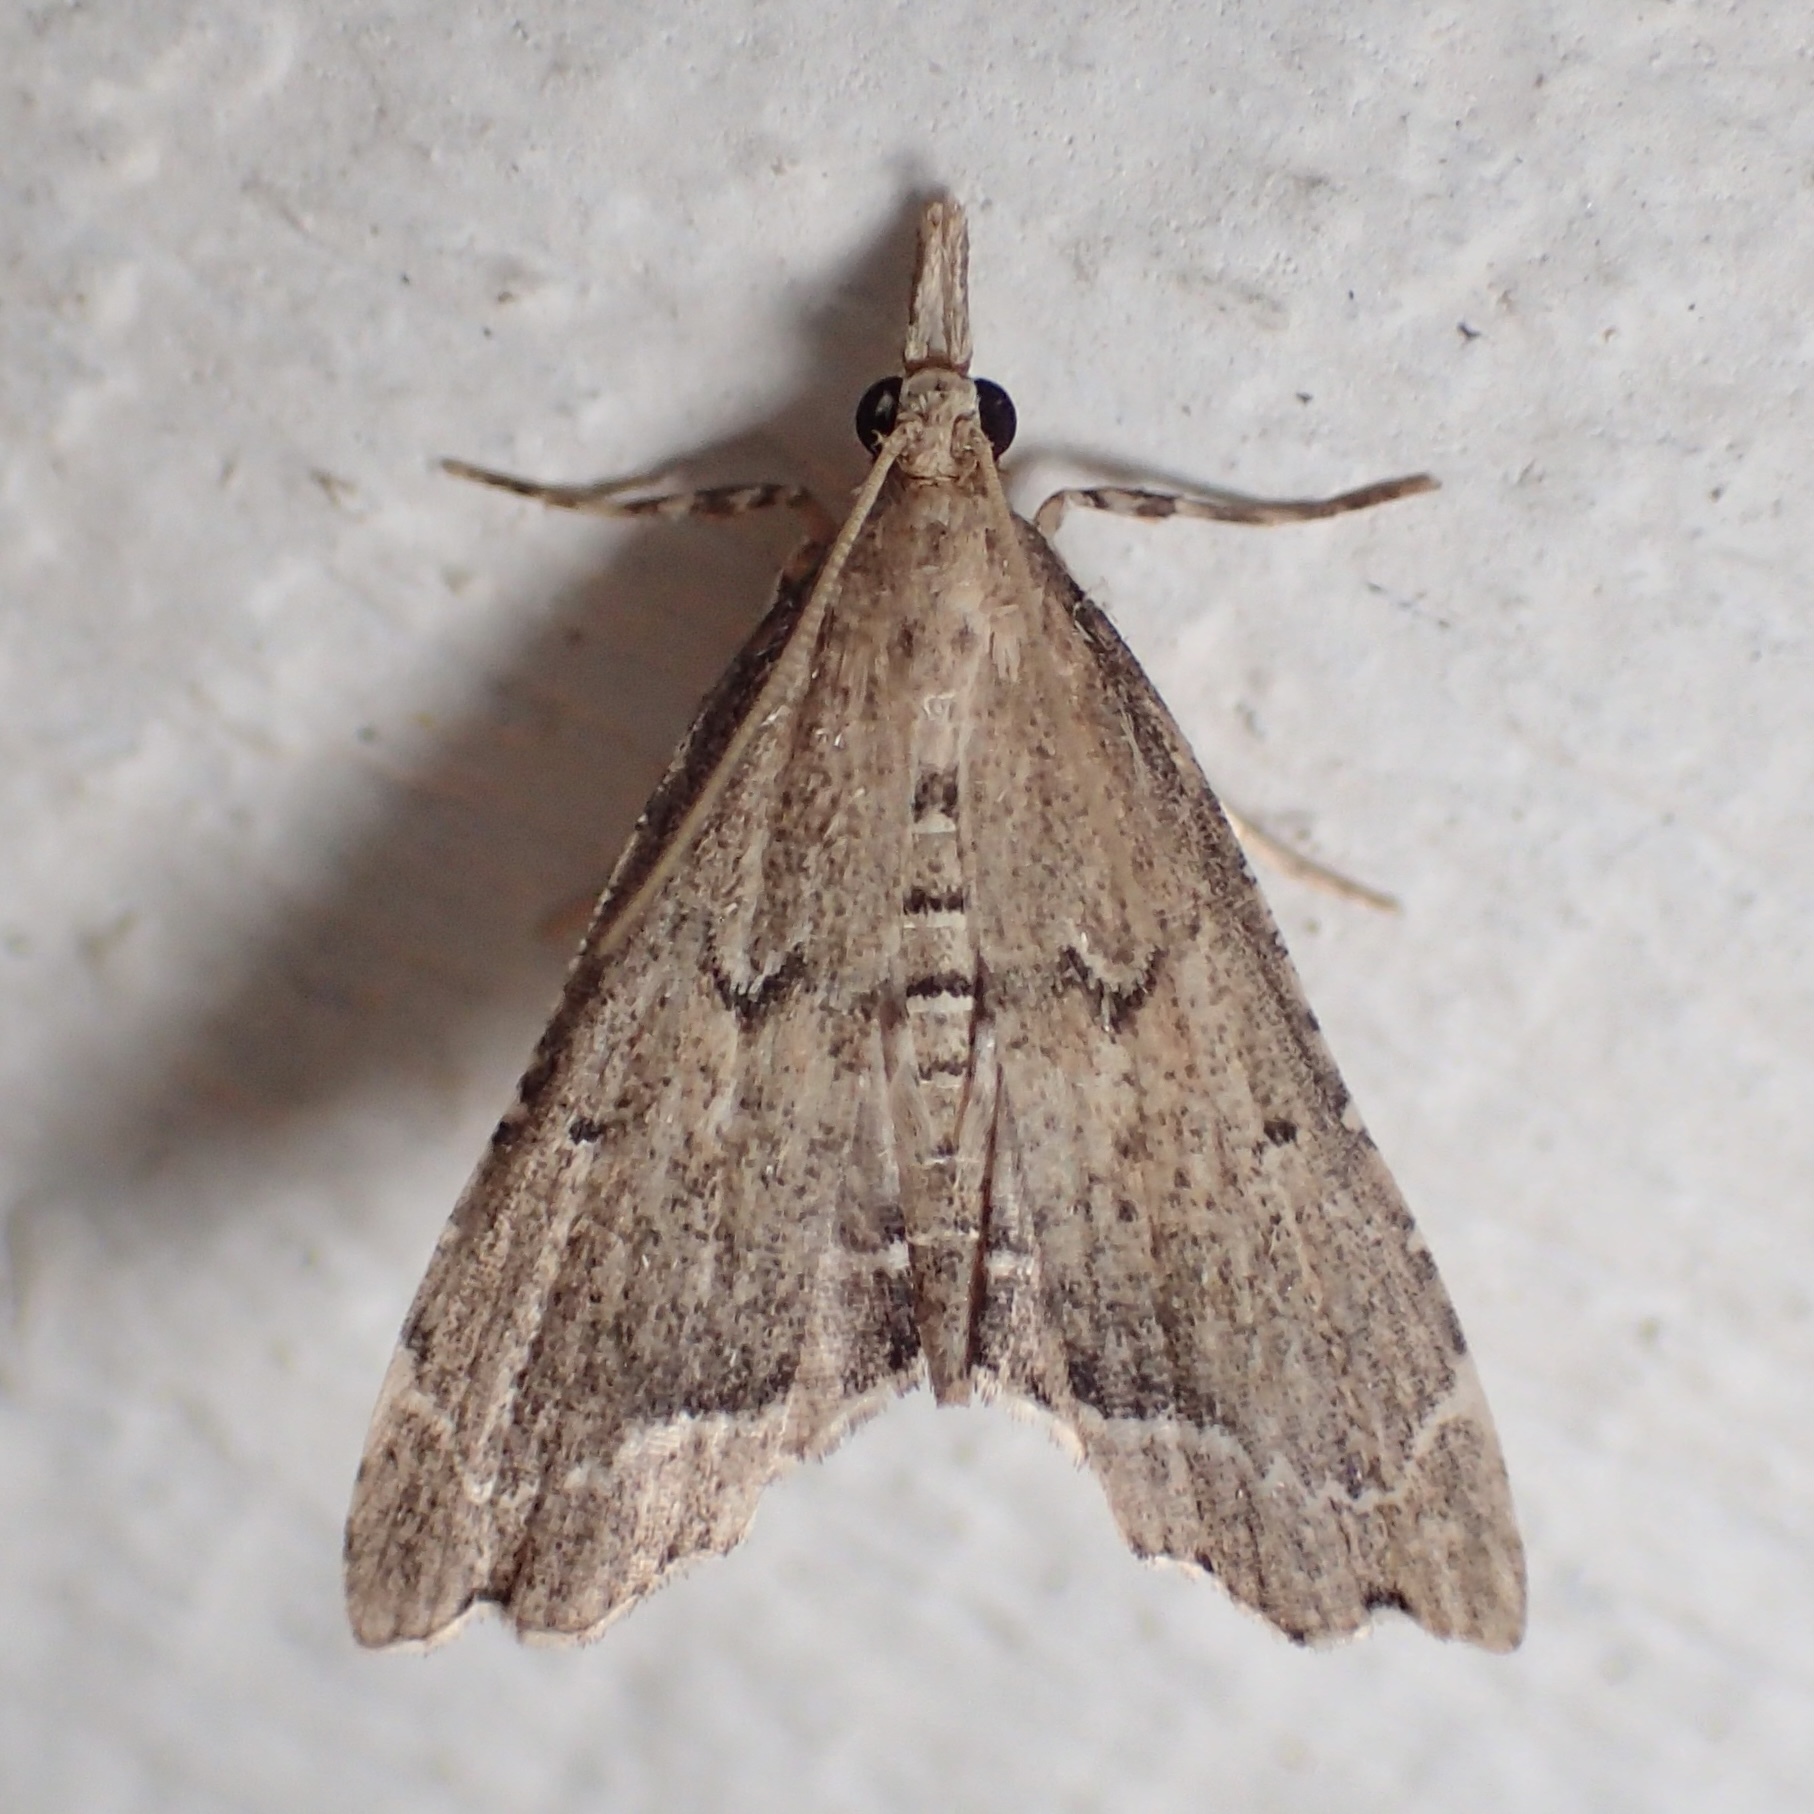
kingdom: Animalia
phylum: Arthropoda
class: Insecta
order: Lepidoptera
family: Crambidae
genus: Diplopseustis
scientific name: Diplopseustis perieresalis
